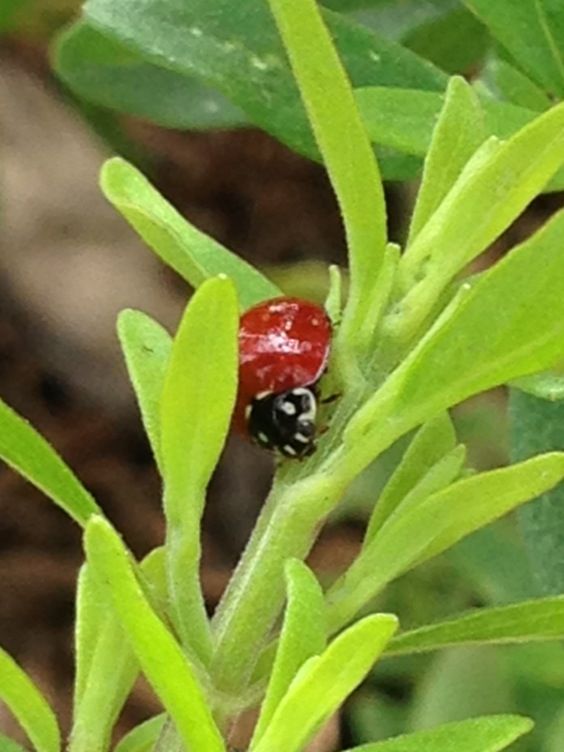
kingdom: Animalia
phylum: Arthropoda
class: Insecta
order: Coleoptera
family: Coccinellidae
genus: Cycloneda
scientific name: Cycloneda sanguinea
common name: Ladybird beetle
